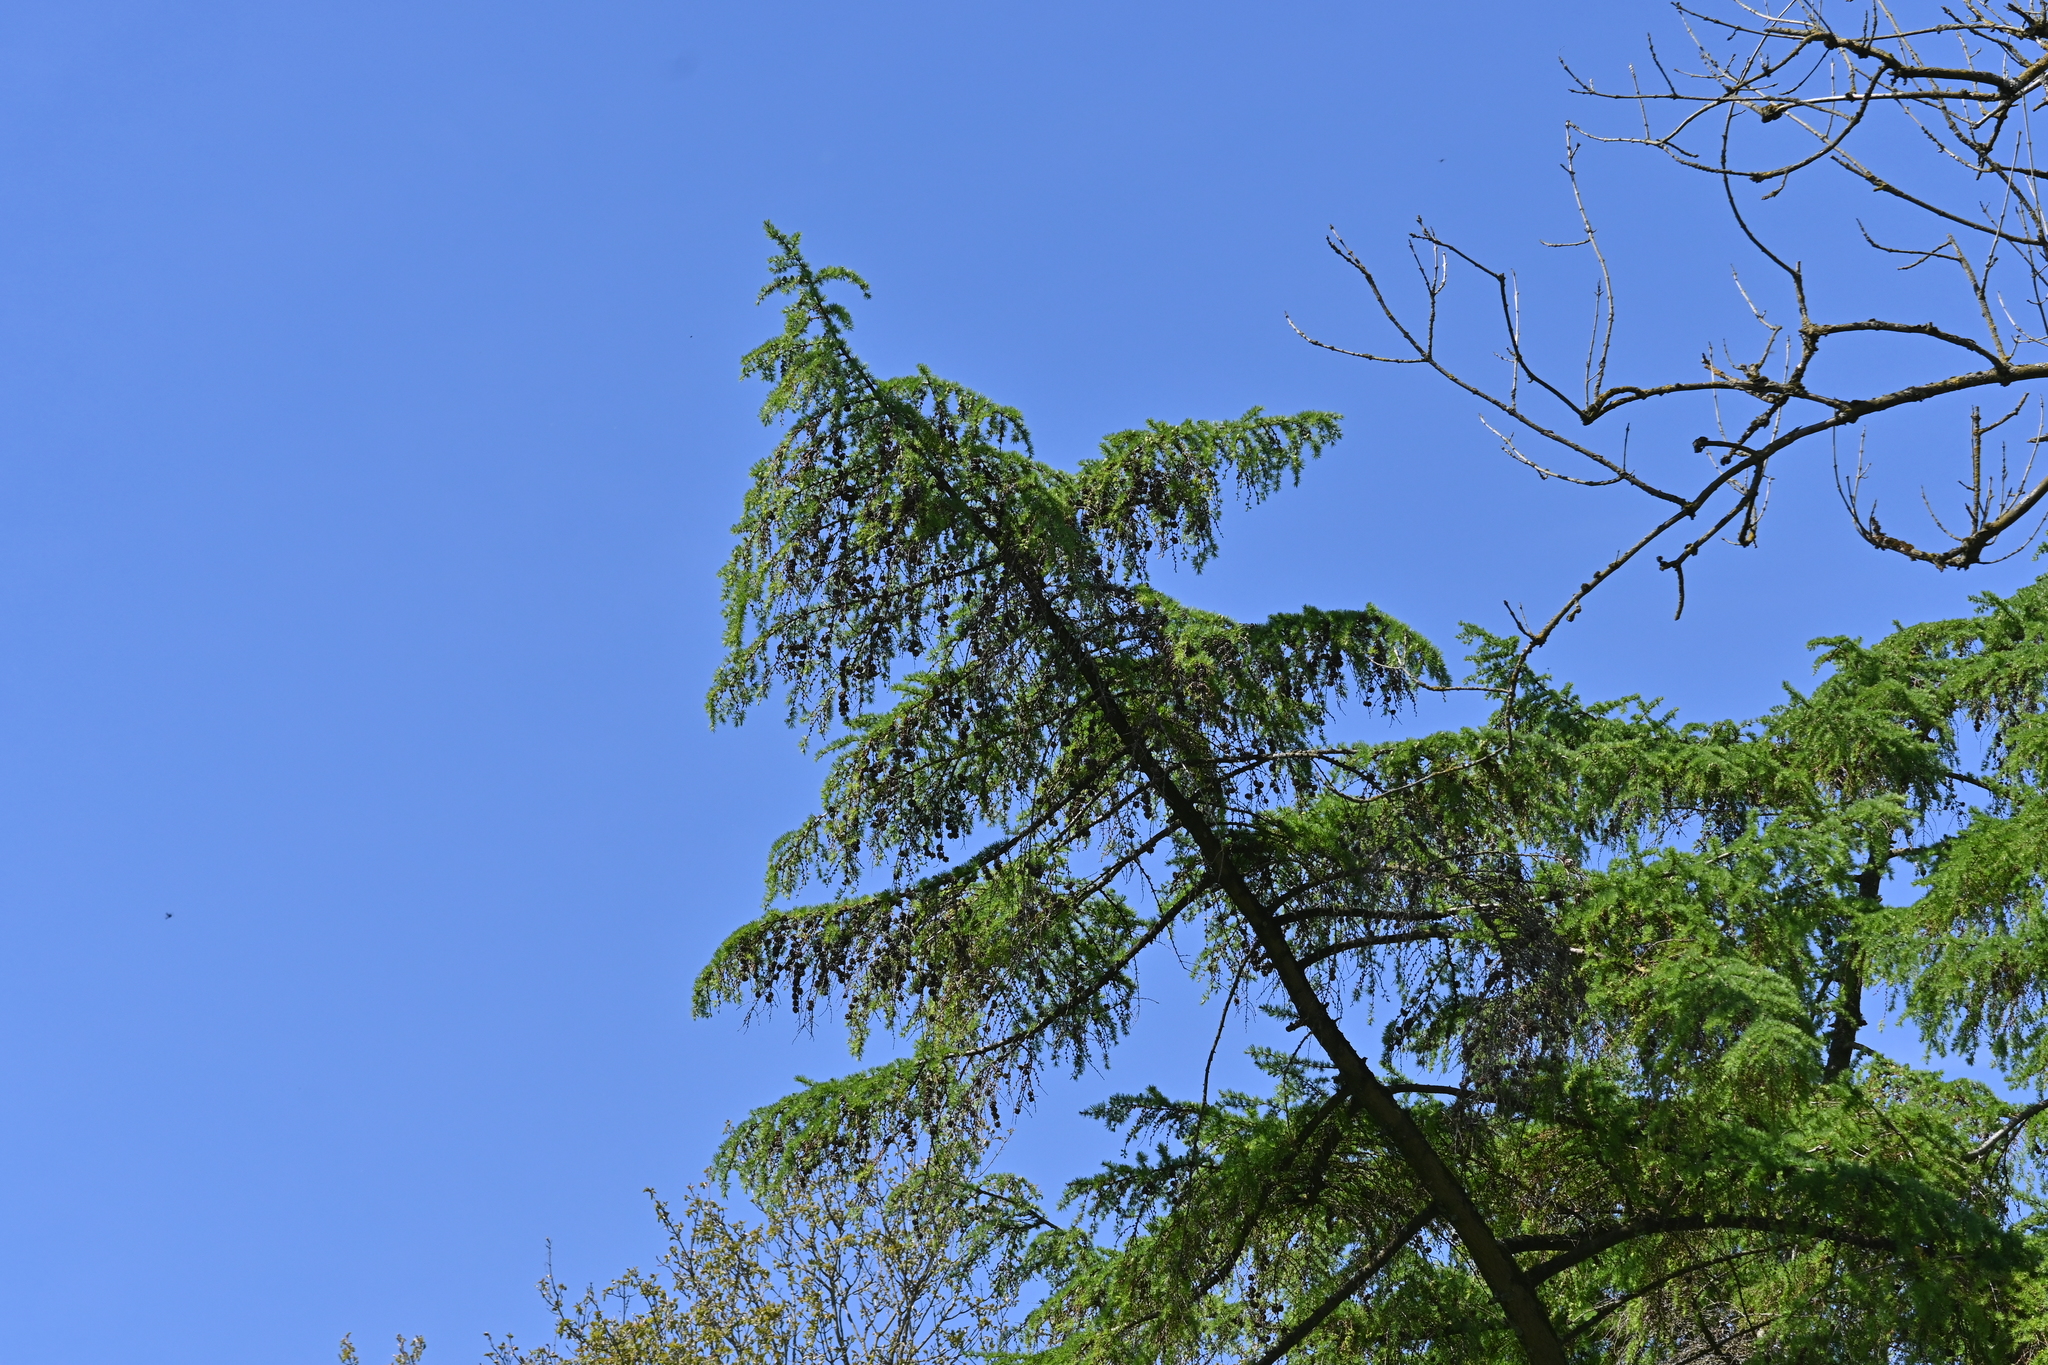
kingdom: Plantae
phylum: Tracheophyta
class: Pinopsida
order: Pinales
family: Pinaceae
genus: Larix
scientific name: Larix decidua
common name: European larch
